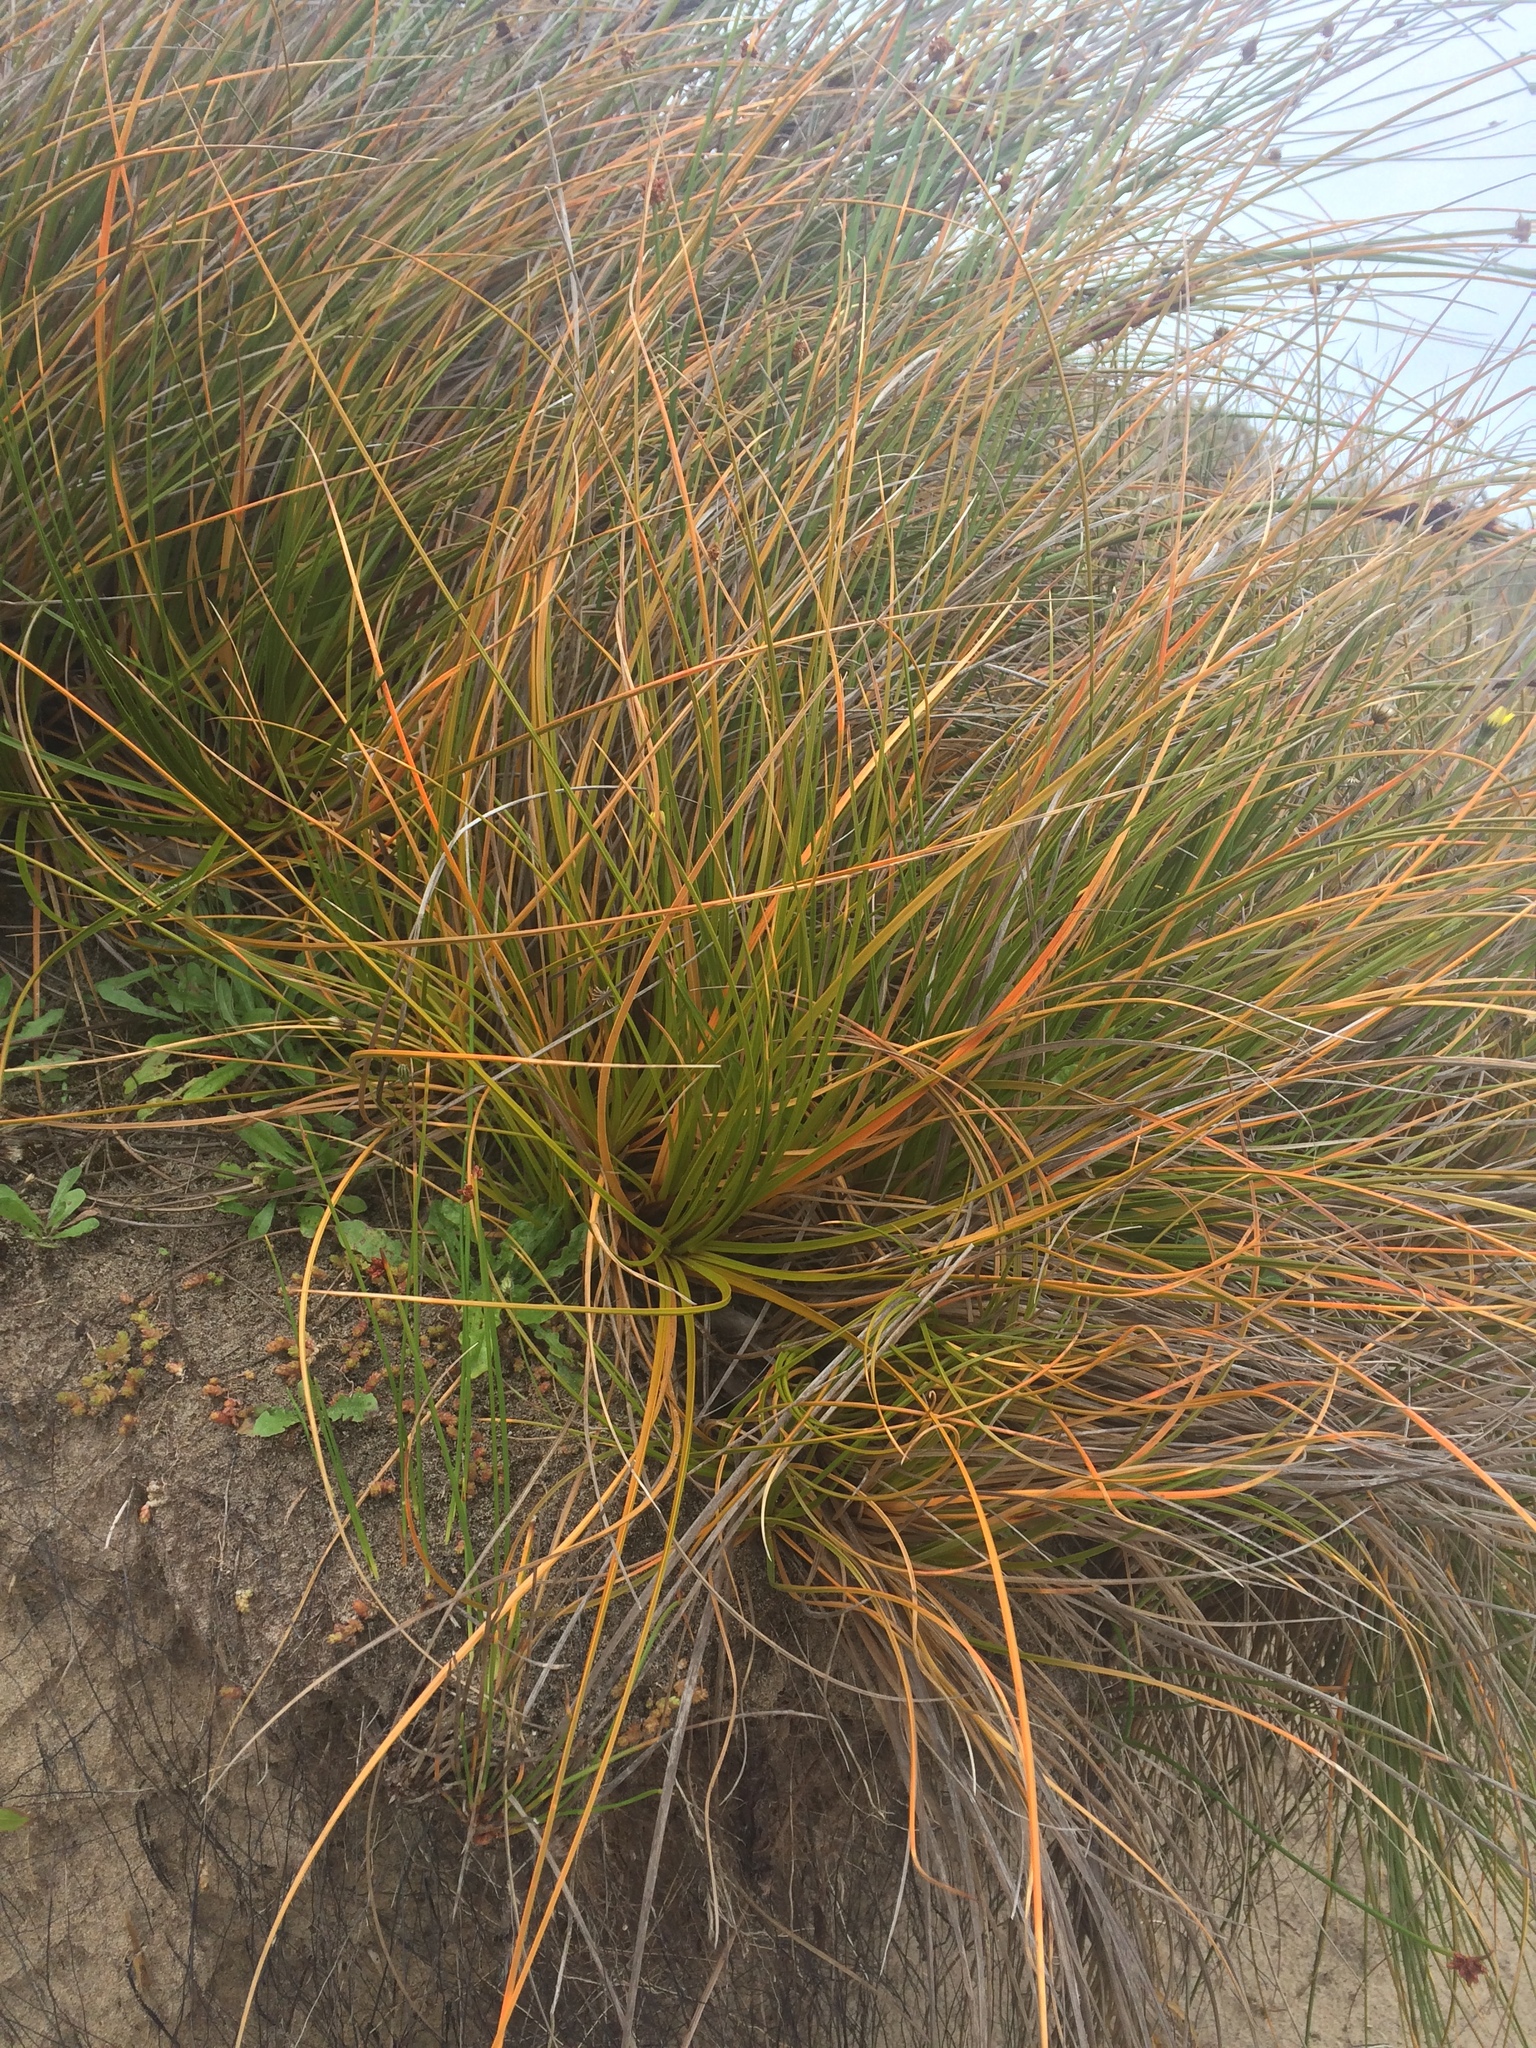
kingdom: Plantae
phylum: Tracheophyta
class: Liliopsida
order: Poales
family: Cyperaceae
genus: Ficinia
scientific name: Ficinia spiralis
